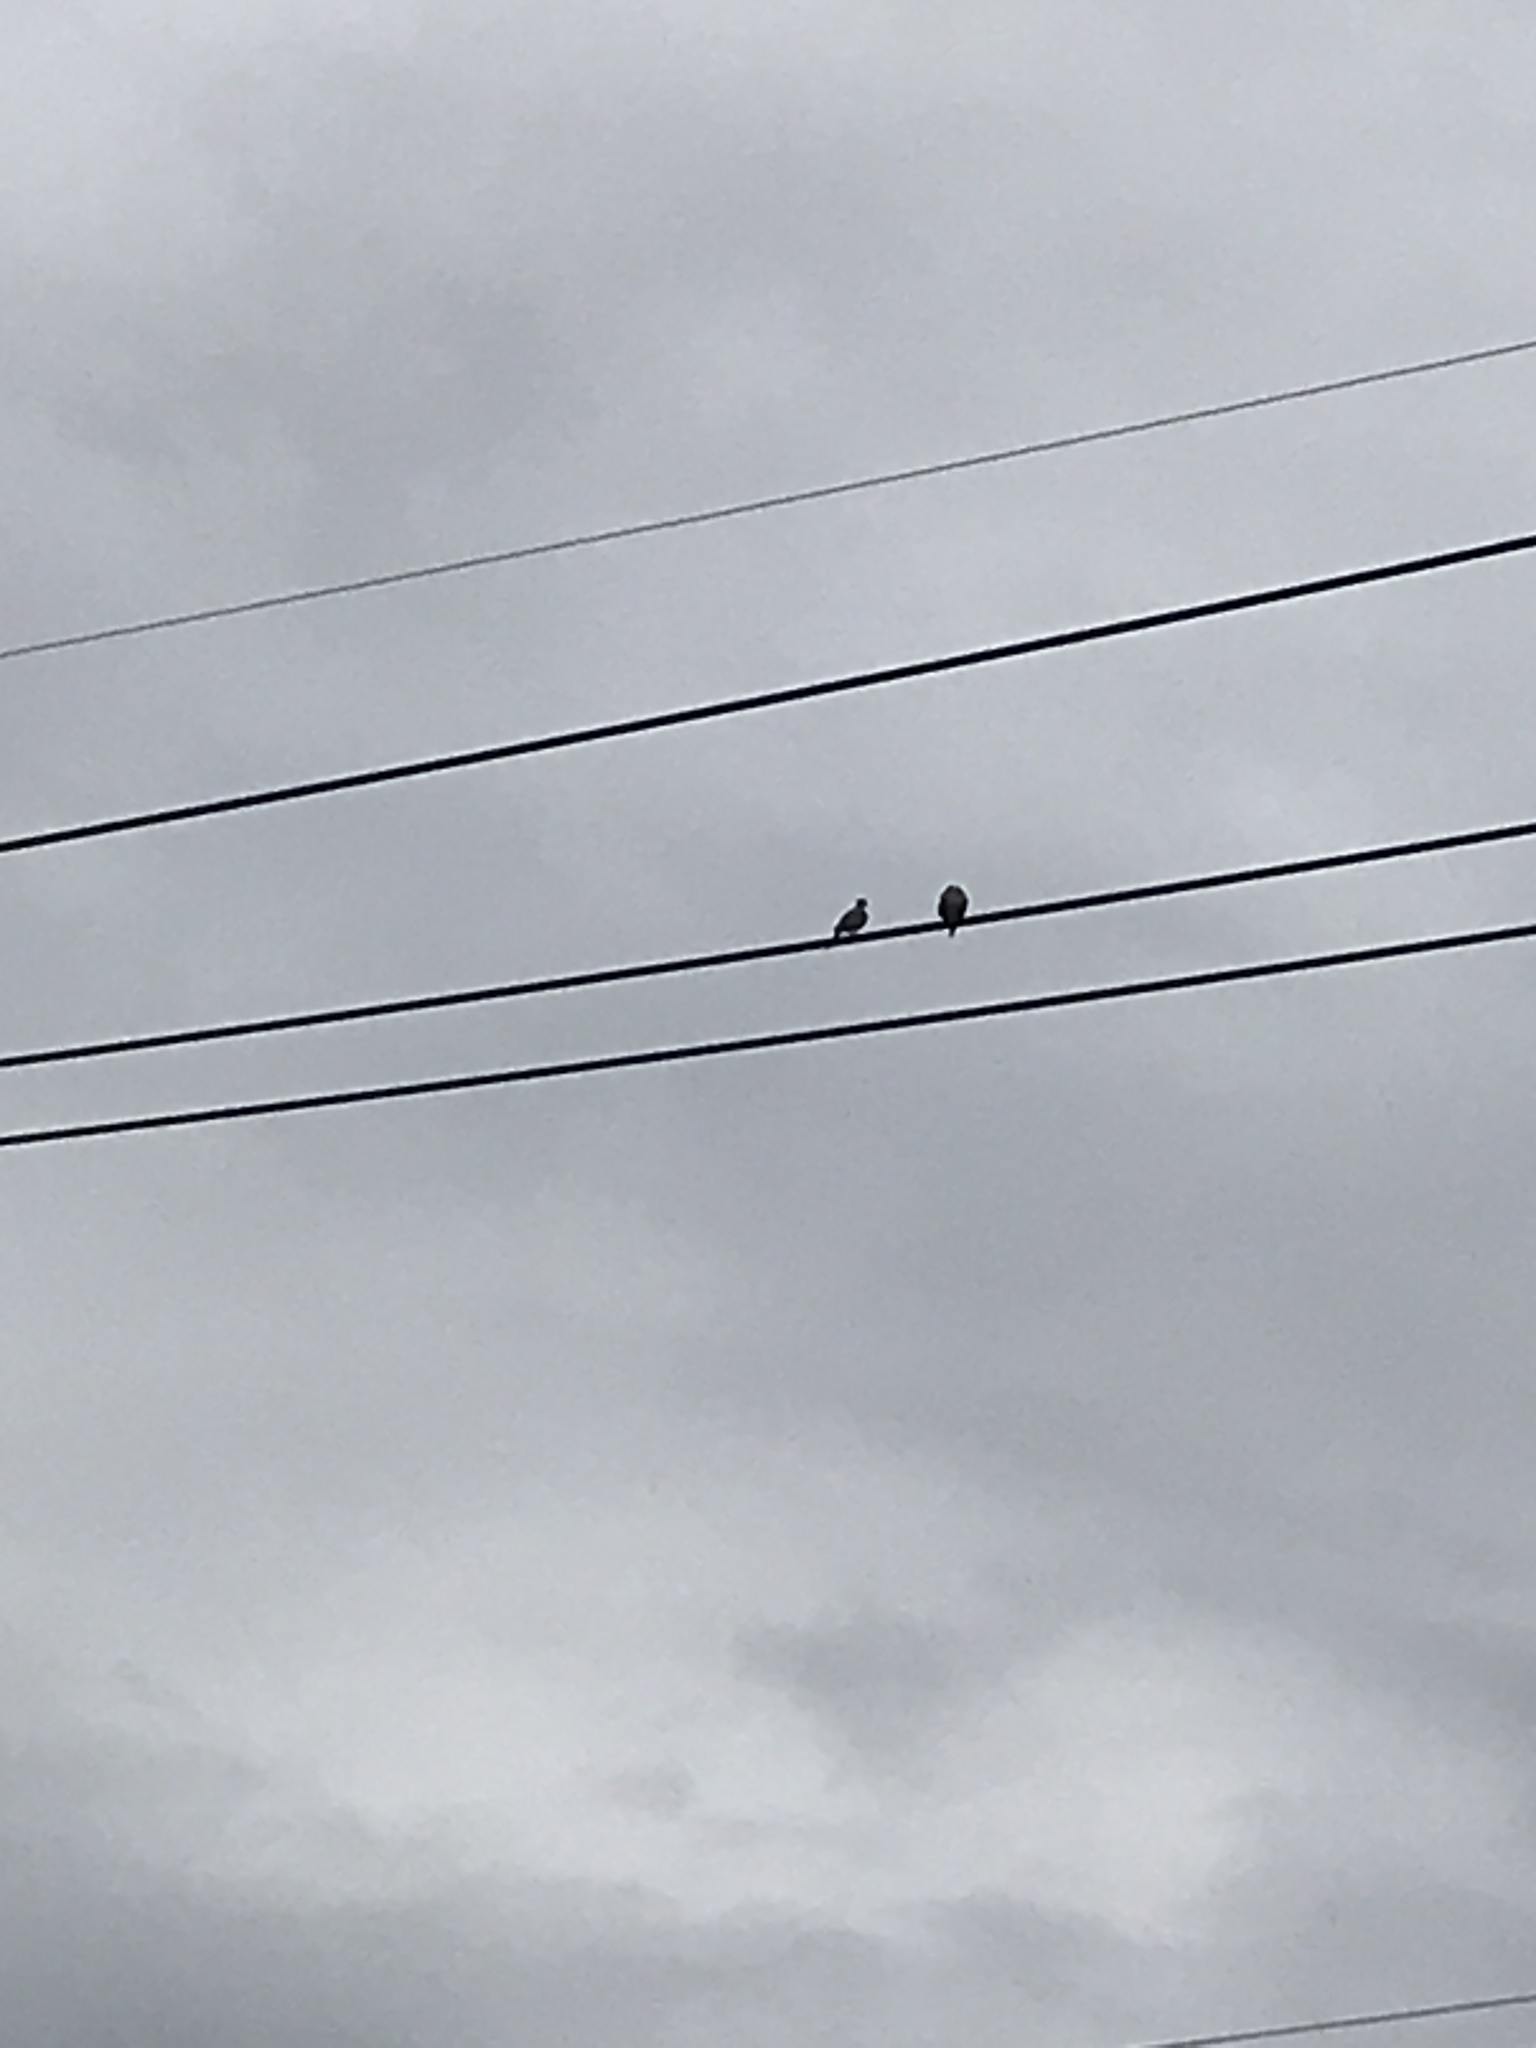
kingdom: Animalia
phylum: Chordata
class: Aves
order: Columbiformes
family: Columbidae
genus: Zenaida
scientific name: Zenaida macroura
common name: Mourning dove
